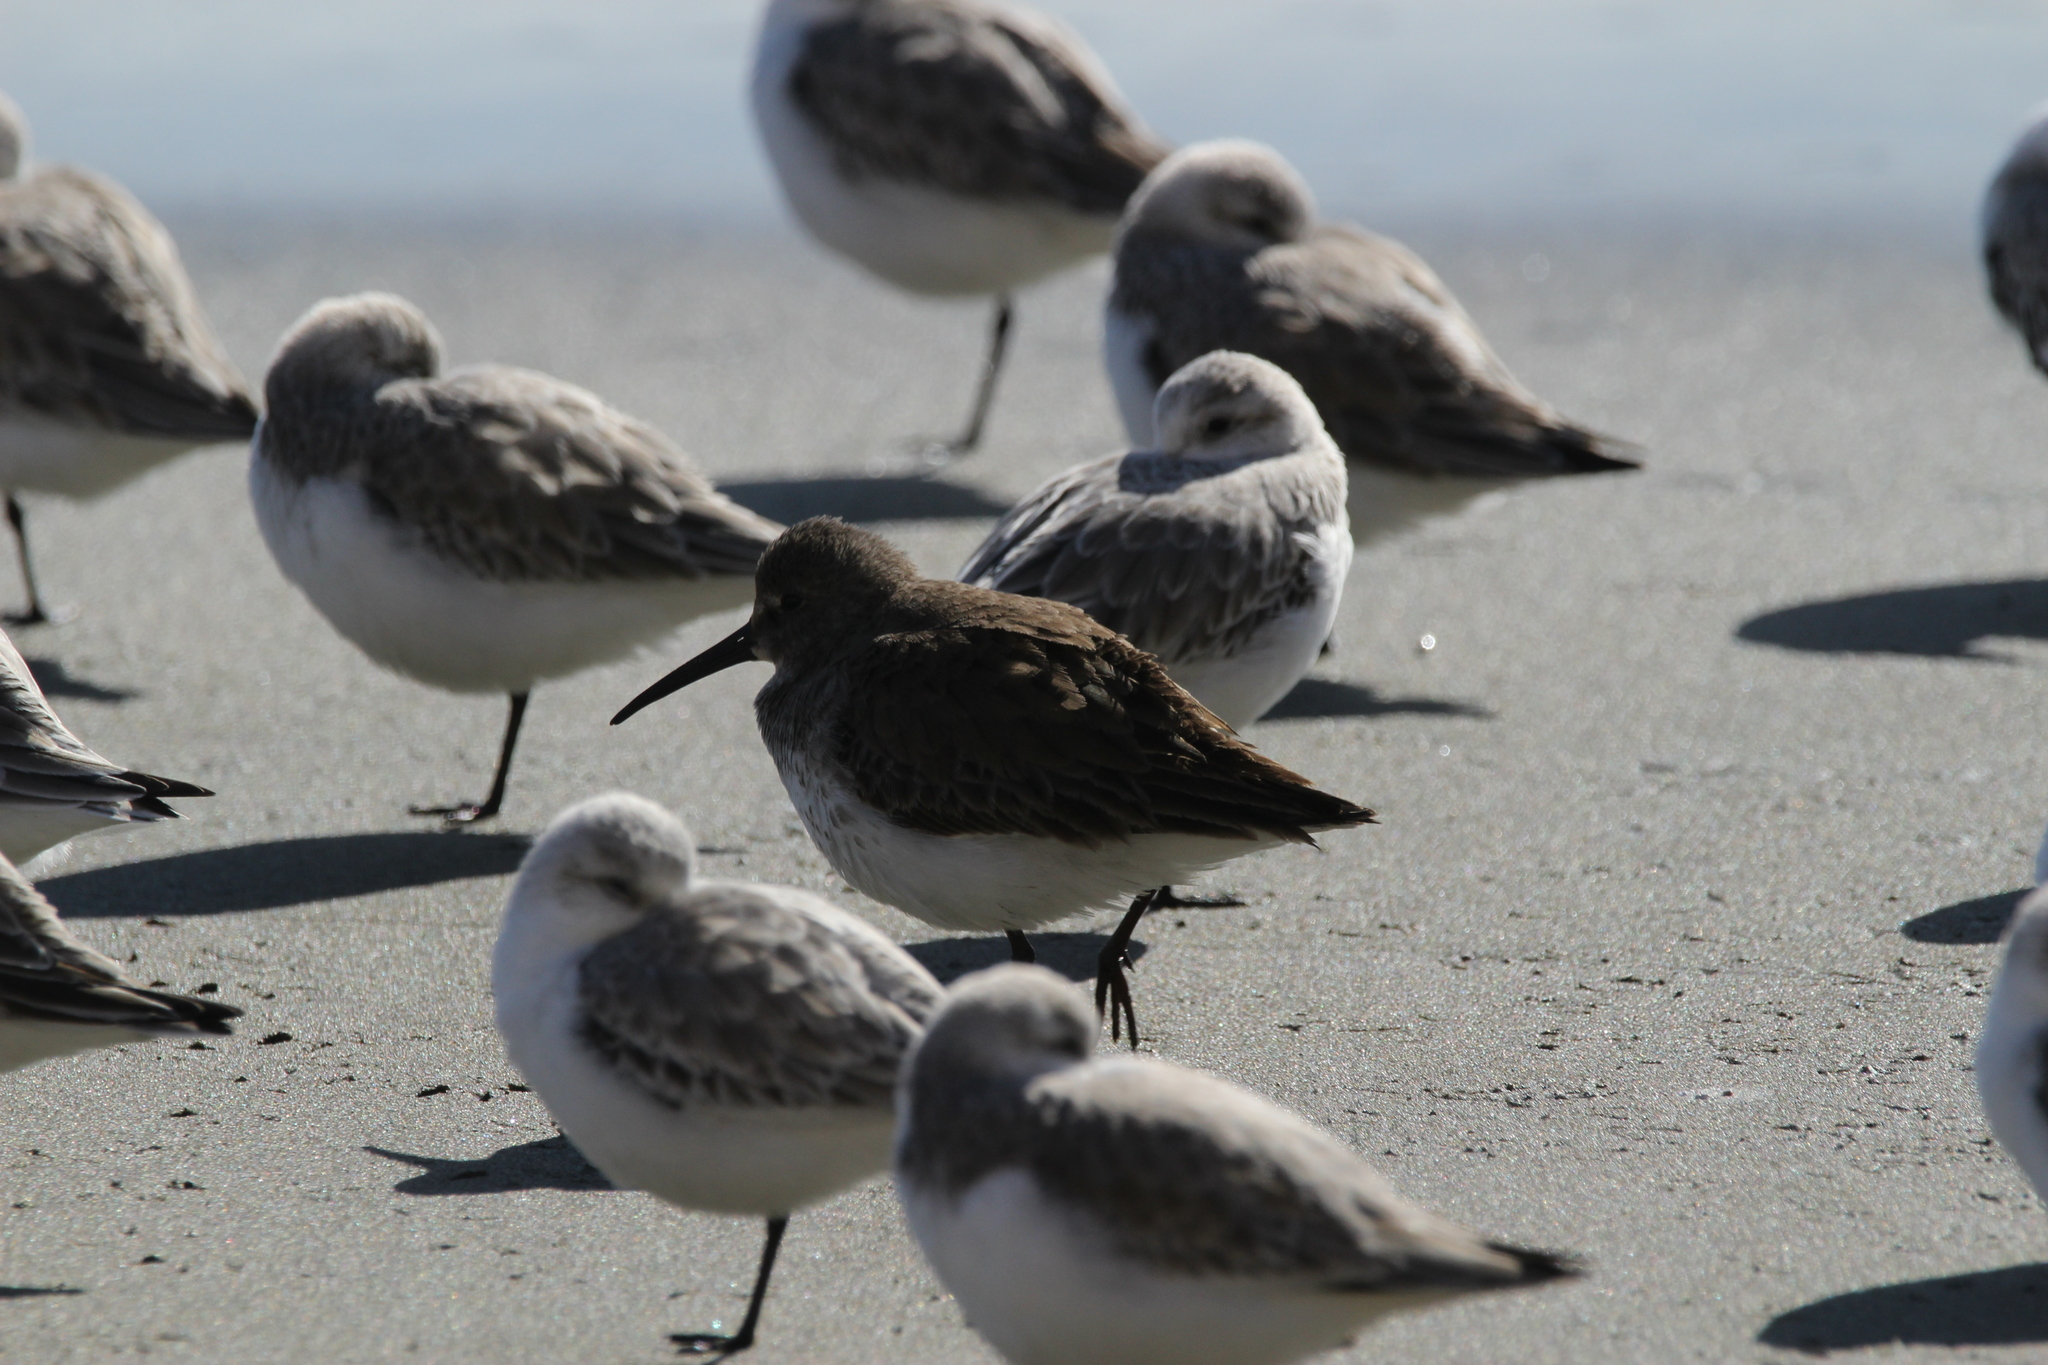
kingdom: Animalia
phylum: Chordata
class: Aves
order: Charadriiformes
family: Scolopacidae
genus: Calidris
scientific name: Calidris alpina
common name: Dunlin
